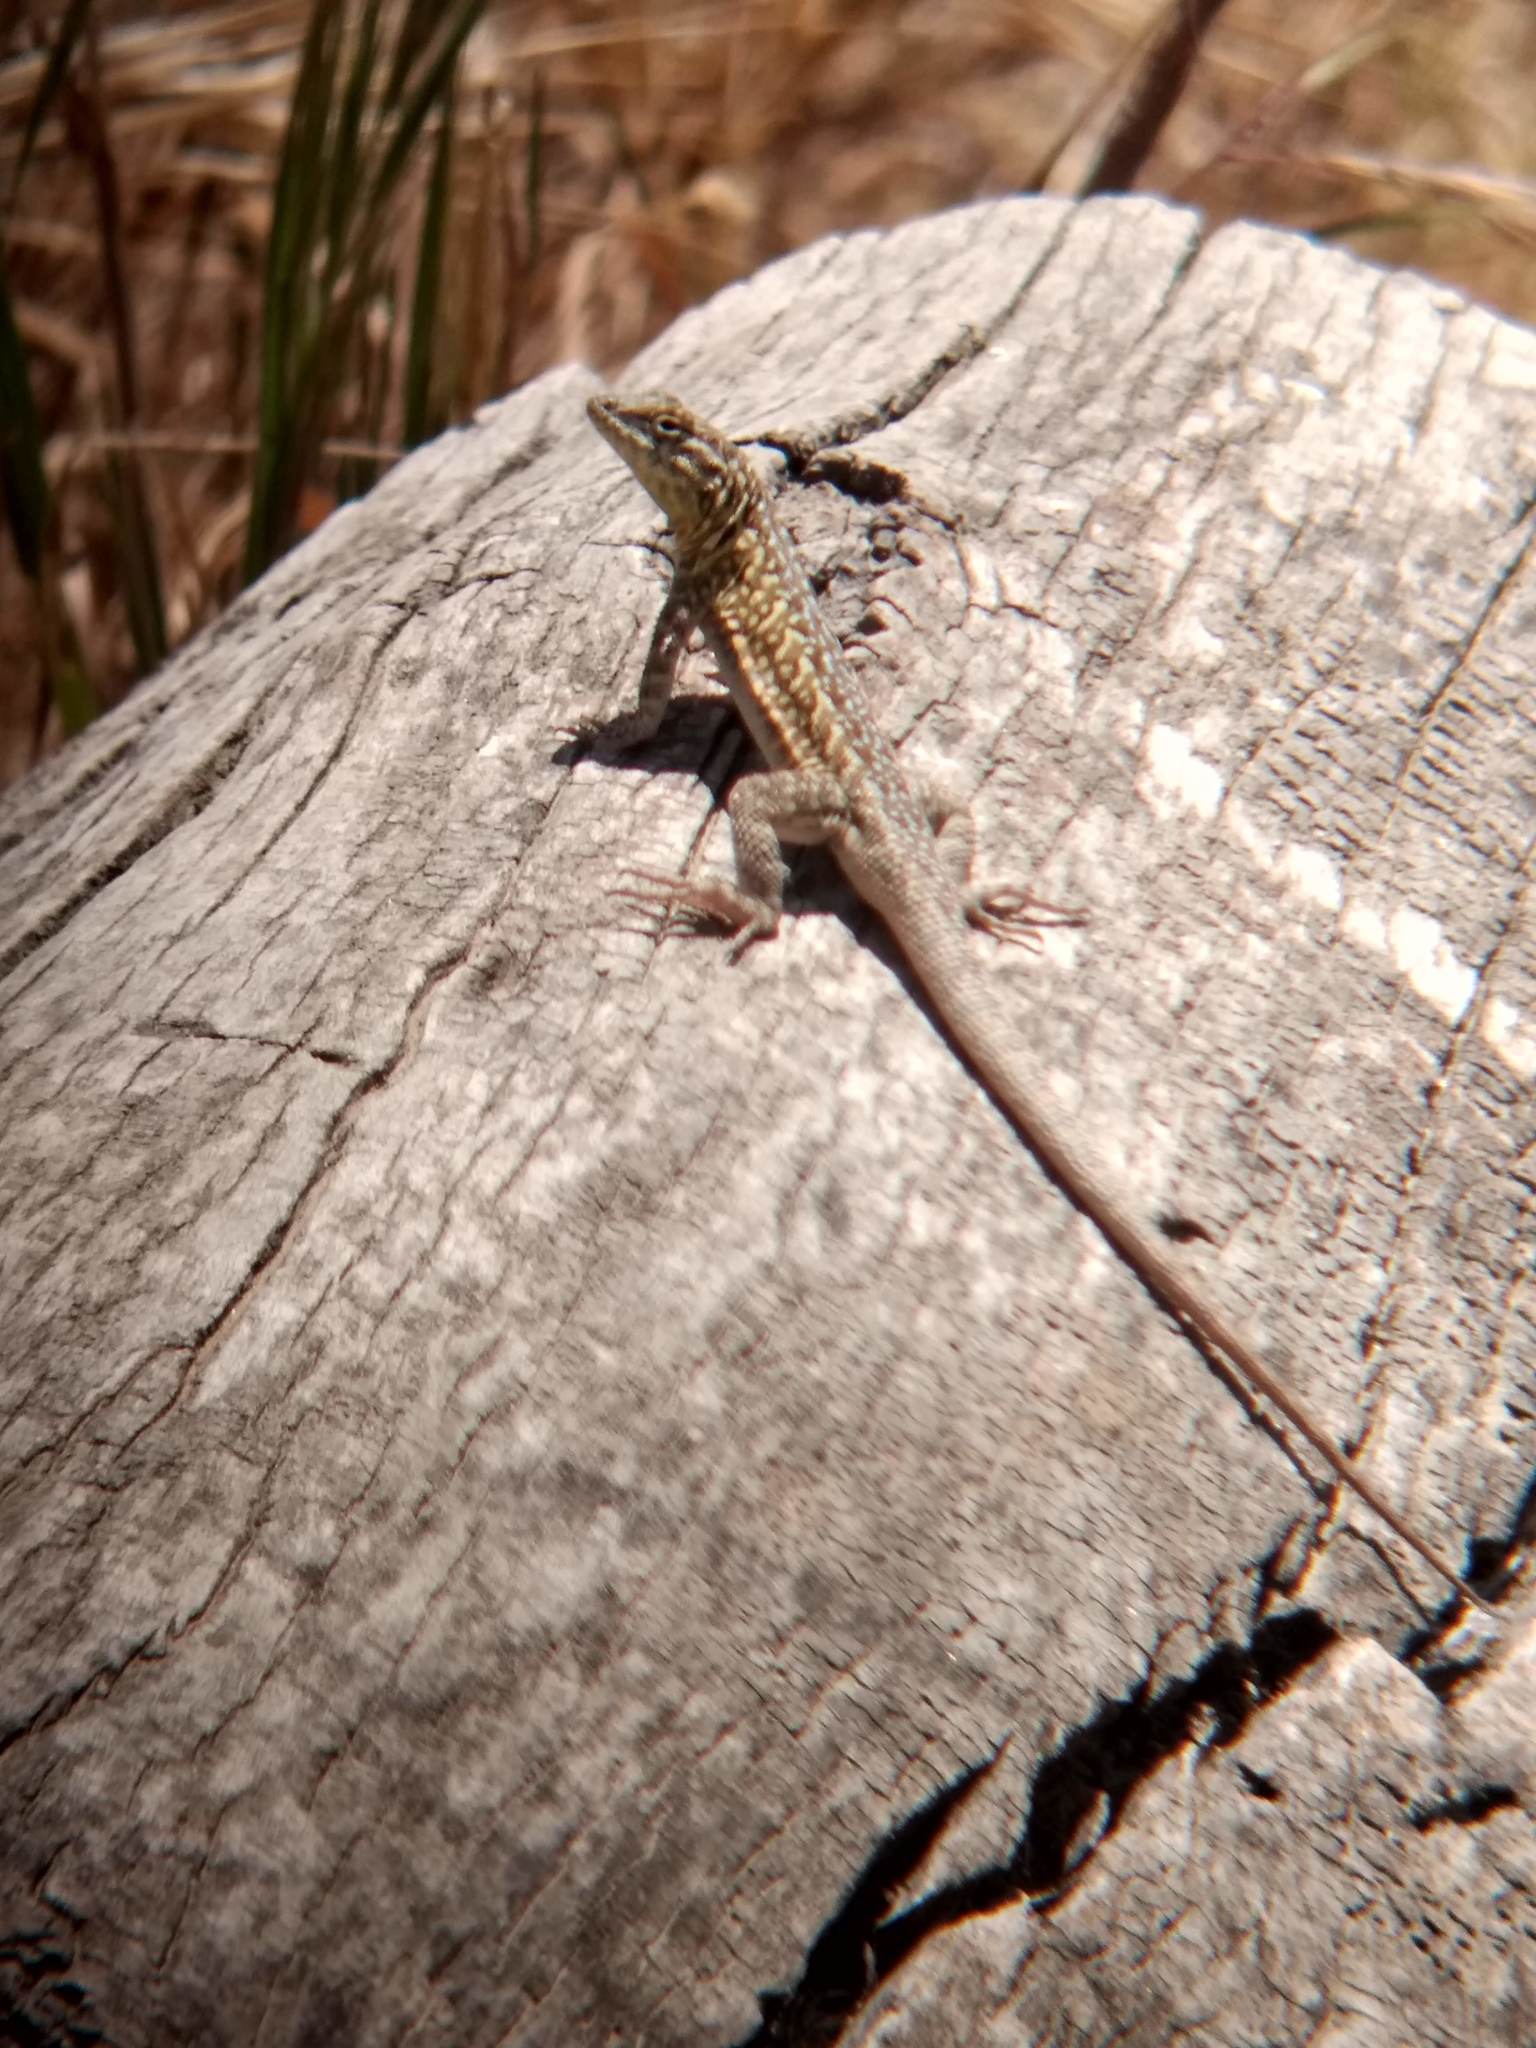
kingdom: Animalia
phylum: Chordata
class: Squamata
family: Phrynosomatidae
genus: Uta
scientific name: Uta stansburiana
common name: Side-blotched lizard
